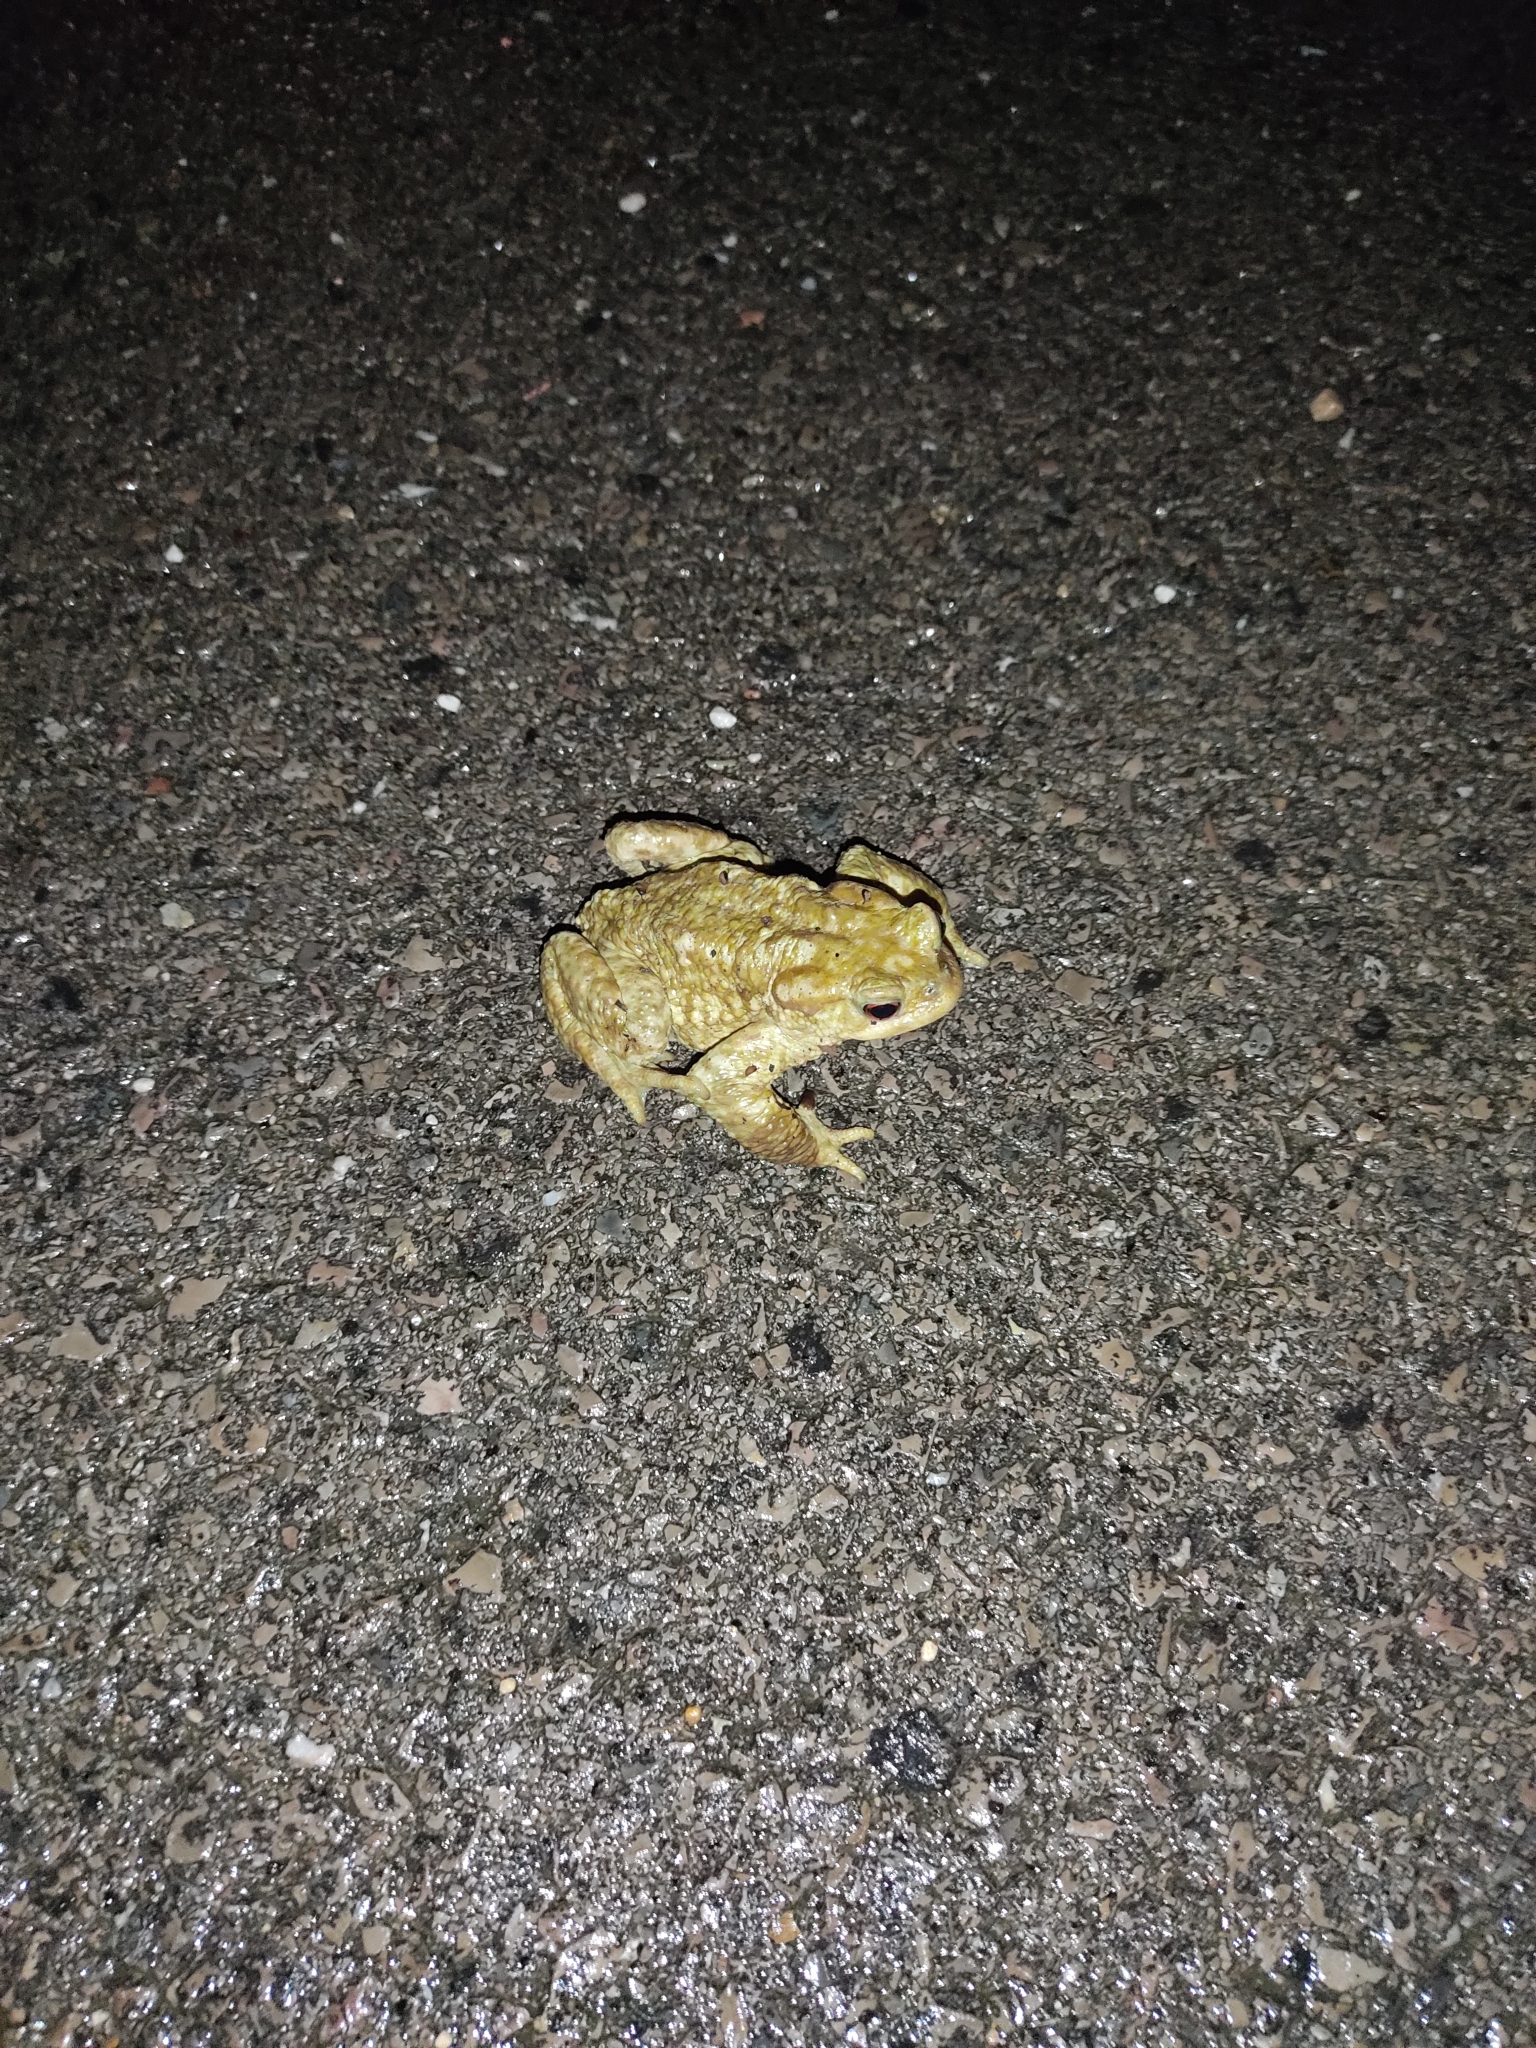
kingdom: Animalia
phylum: Chordata
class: Amphibia
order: Anura
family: Bufonidae
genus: Bufo
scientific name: Bufo spinosus
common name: Western common toad
